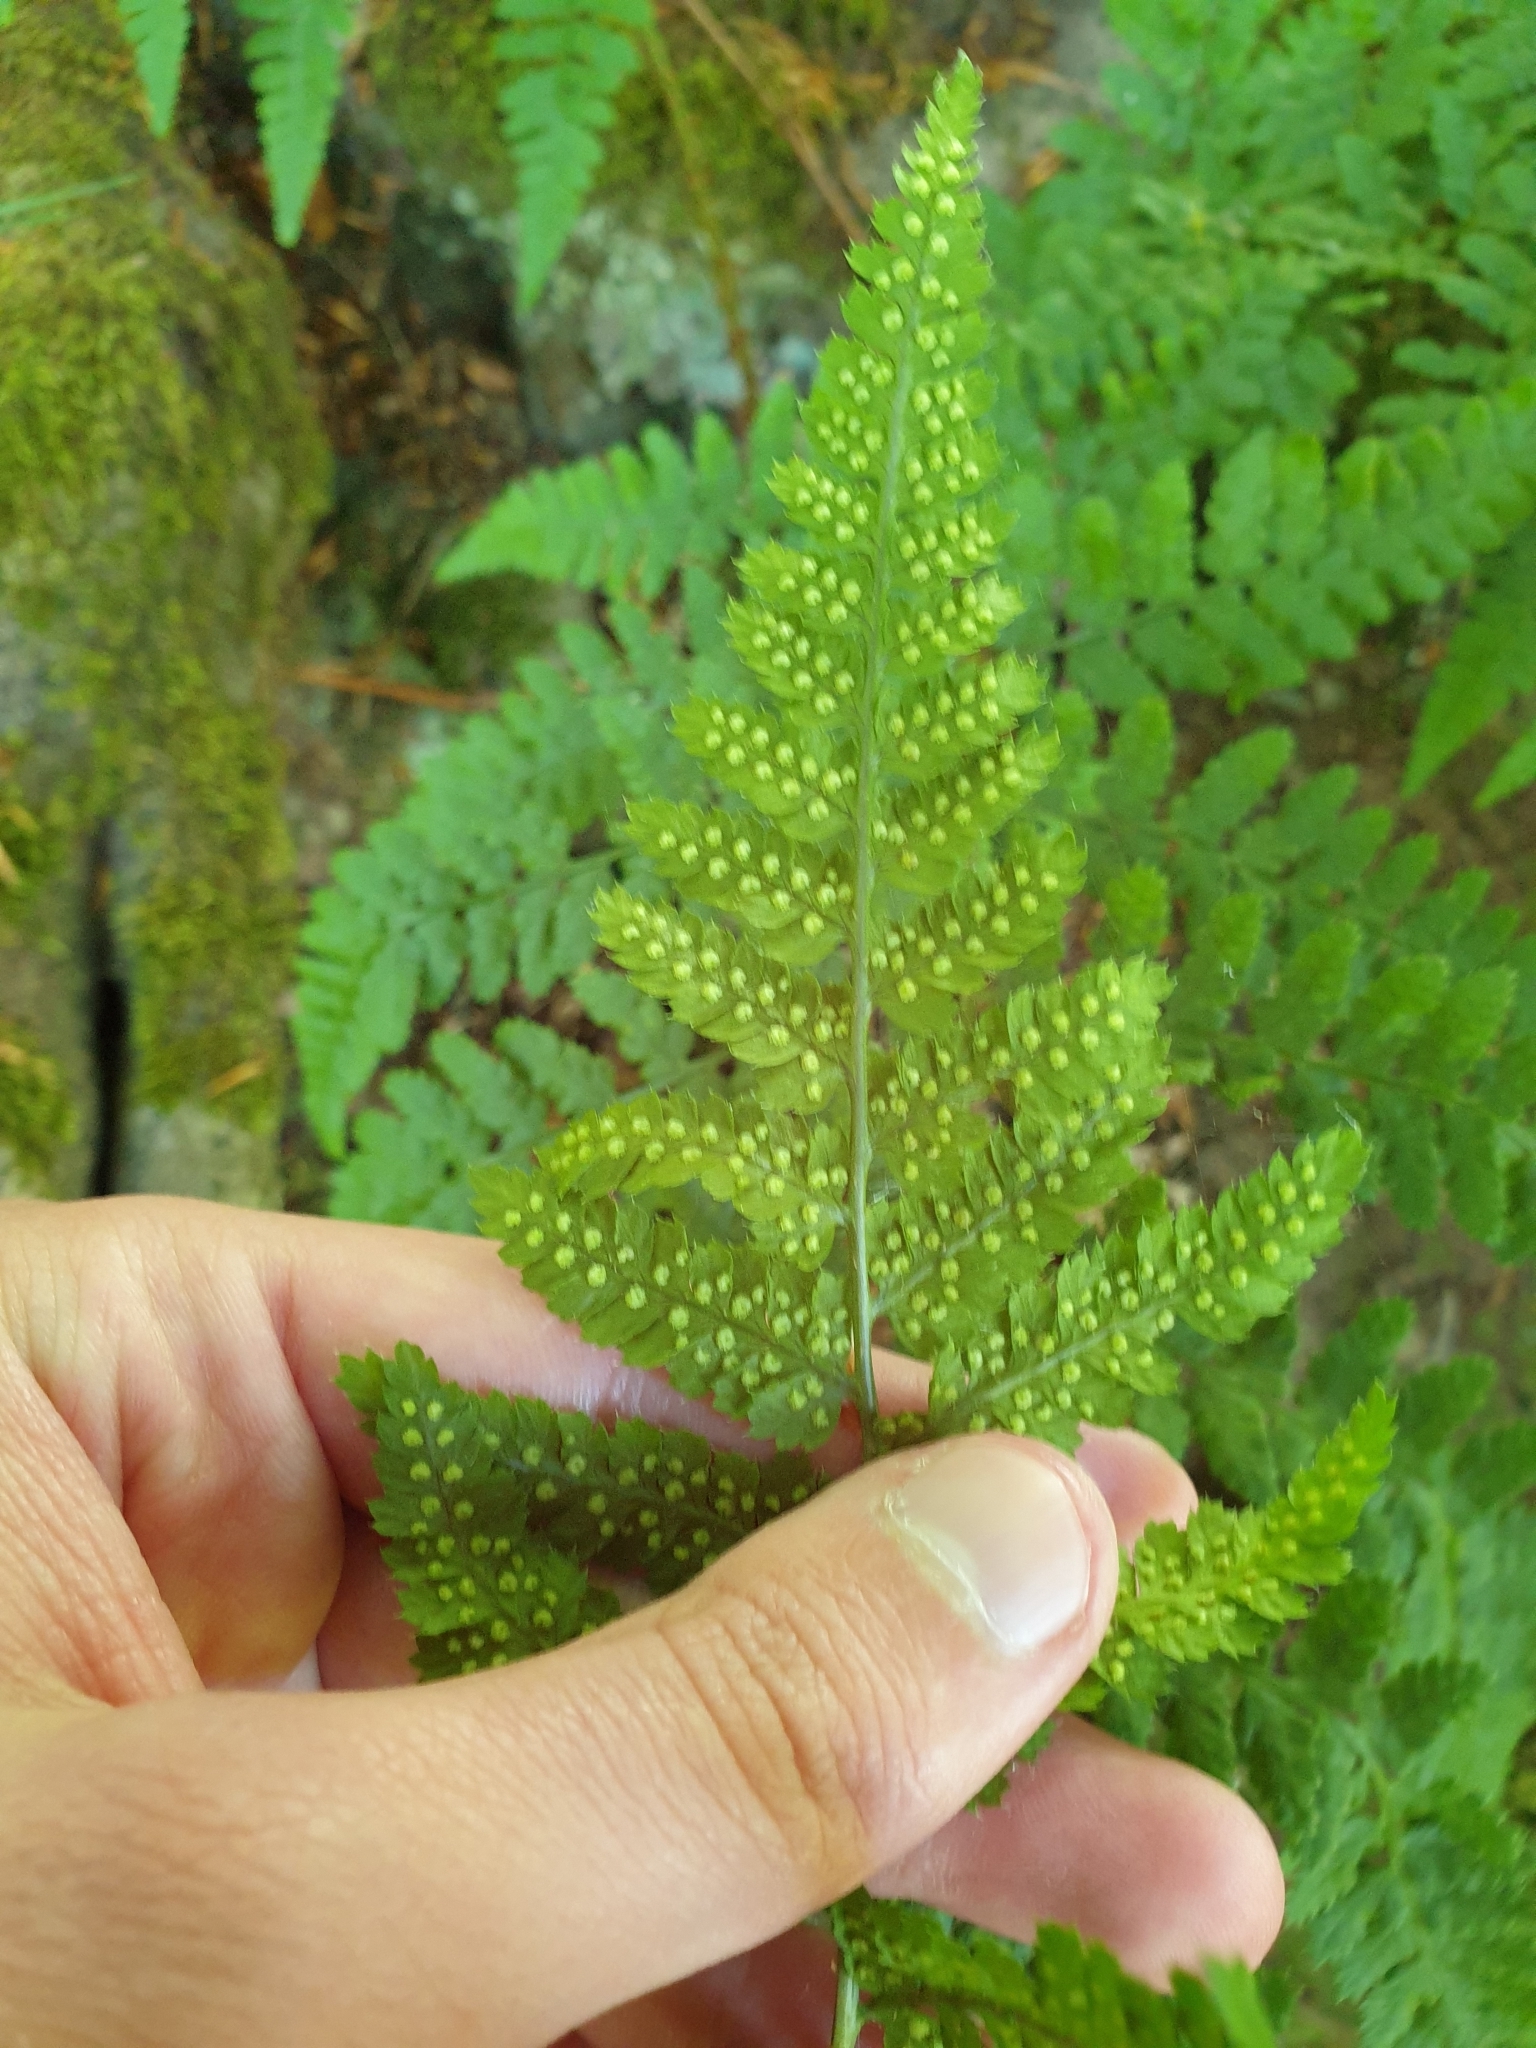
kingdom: Plantae
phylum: Tracheophyta
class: Polypodiopsida
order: Polypodiales
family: Dryopteridaceae
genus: Dryopteris
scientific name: Dryopteris dilatata
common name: Broad buckler-fern
